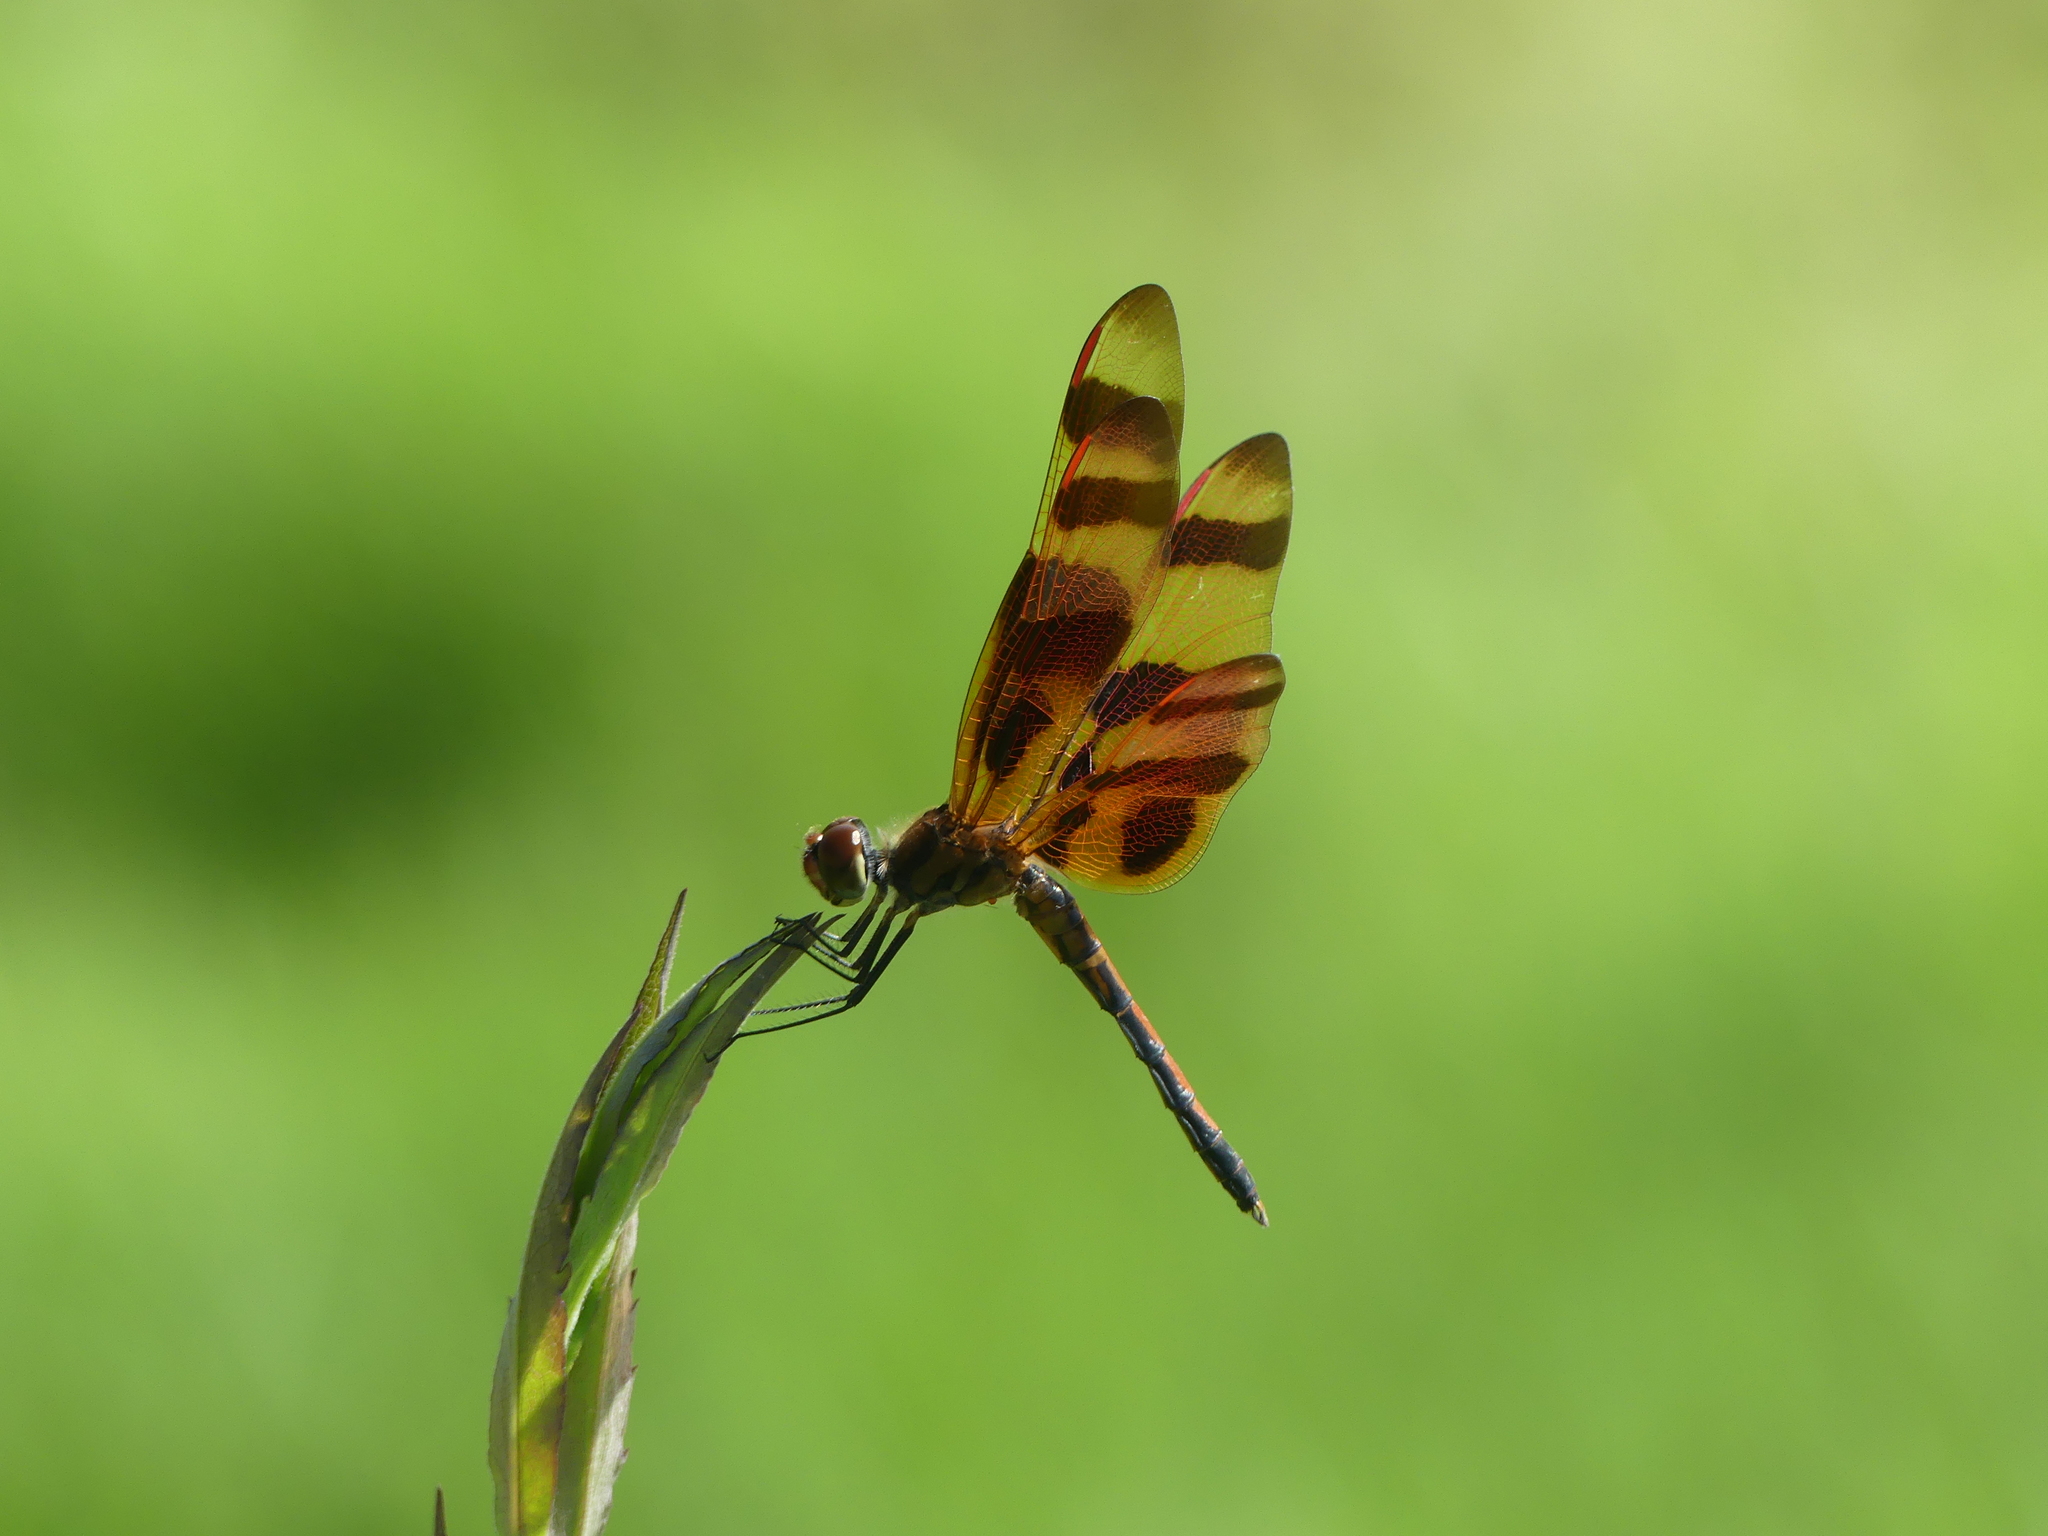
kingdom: Animalia
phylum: Arthropoda
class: Insecta
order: Odonata
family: Libellulidae
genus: Celithemis
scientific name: Celithemis eponina
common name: Halloween pennant
